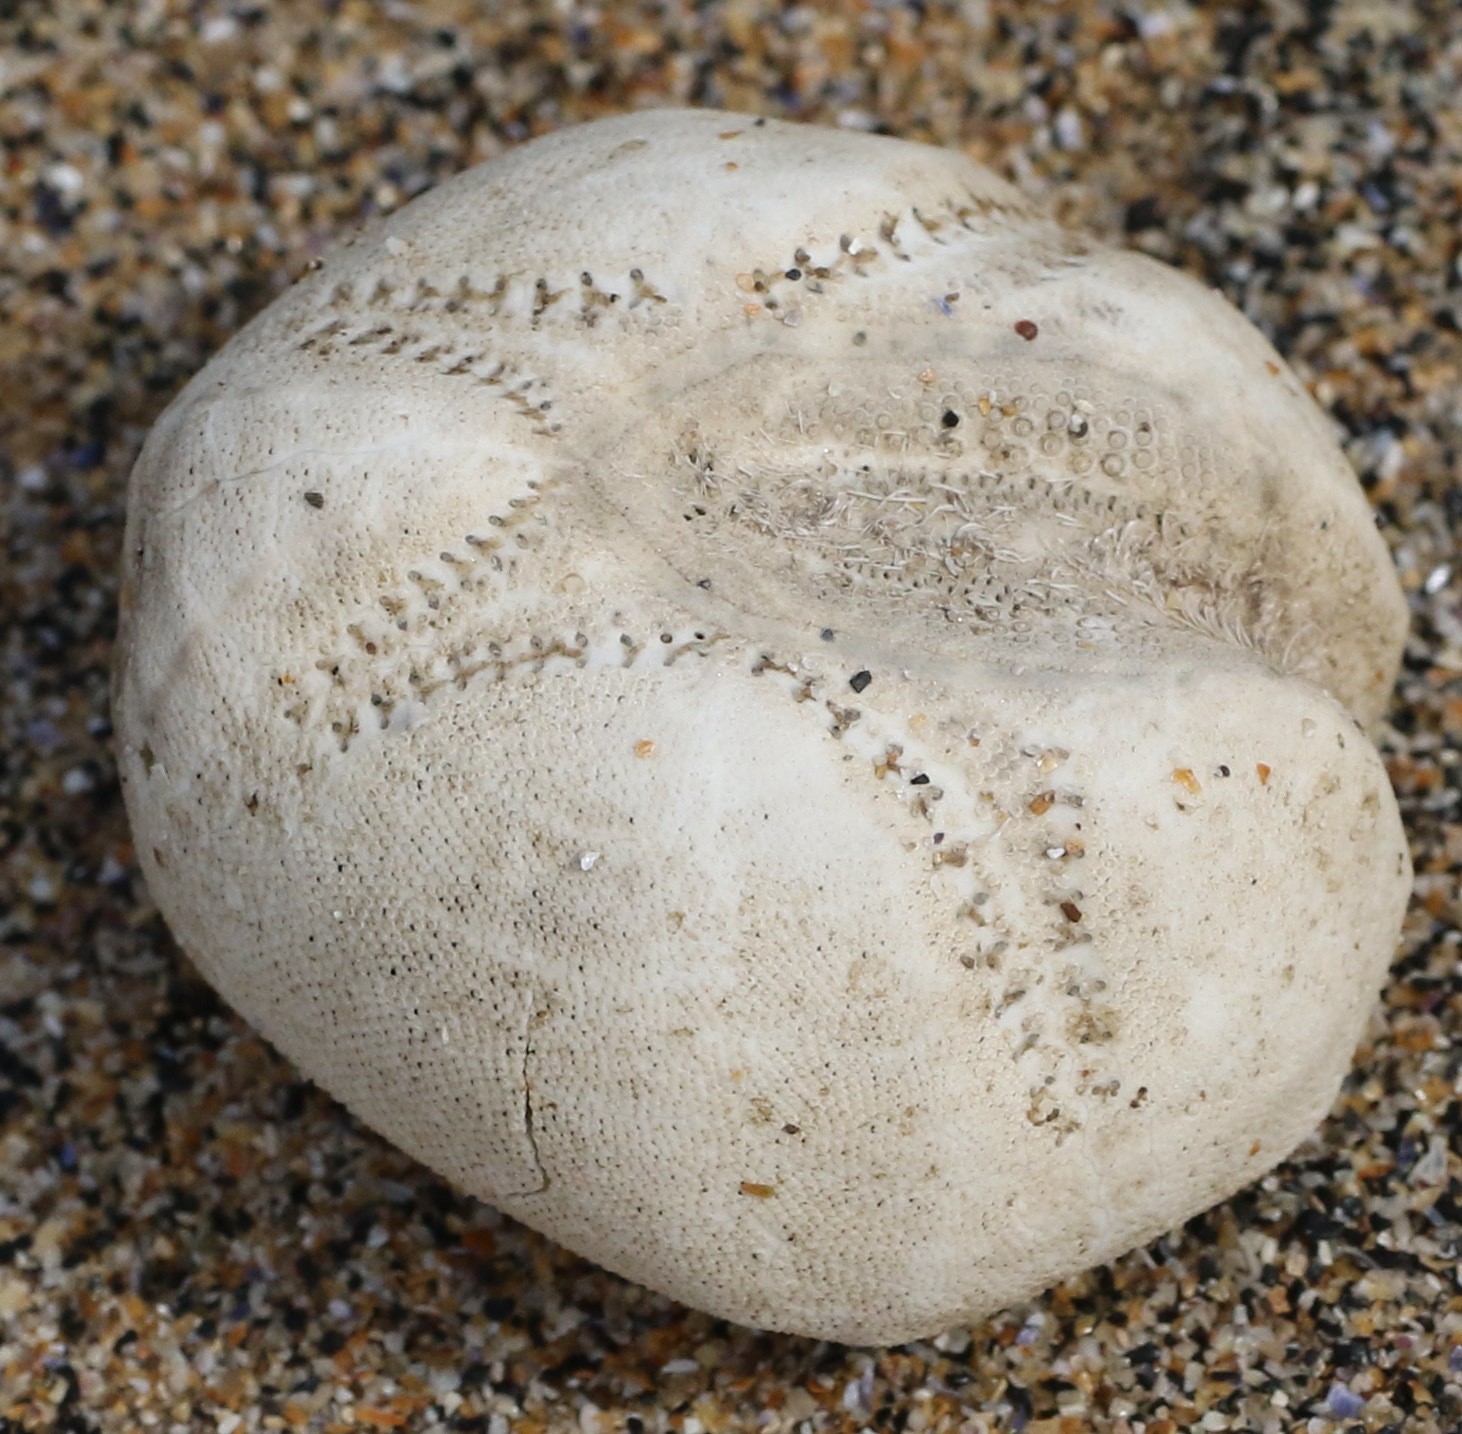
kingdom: Animalia
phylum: Echinodermata
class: Echinoidea
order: Spatangoida
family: Loveniidae
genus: Echinocardium
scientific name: Echinocardium cordatum
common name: Heart-urchin
